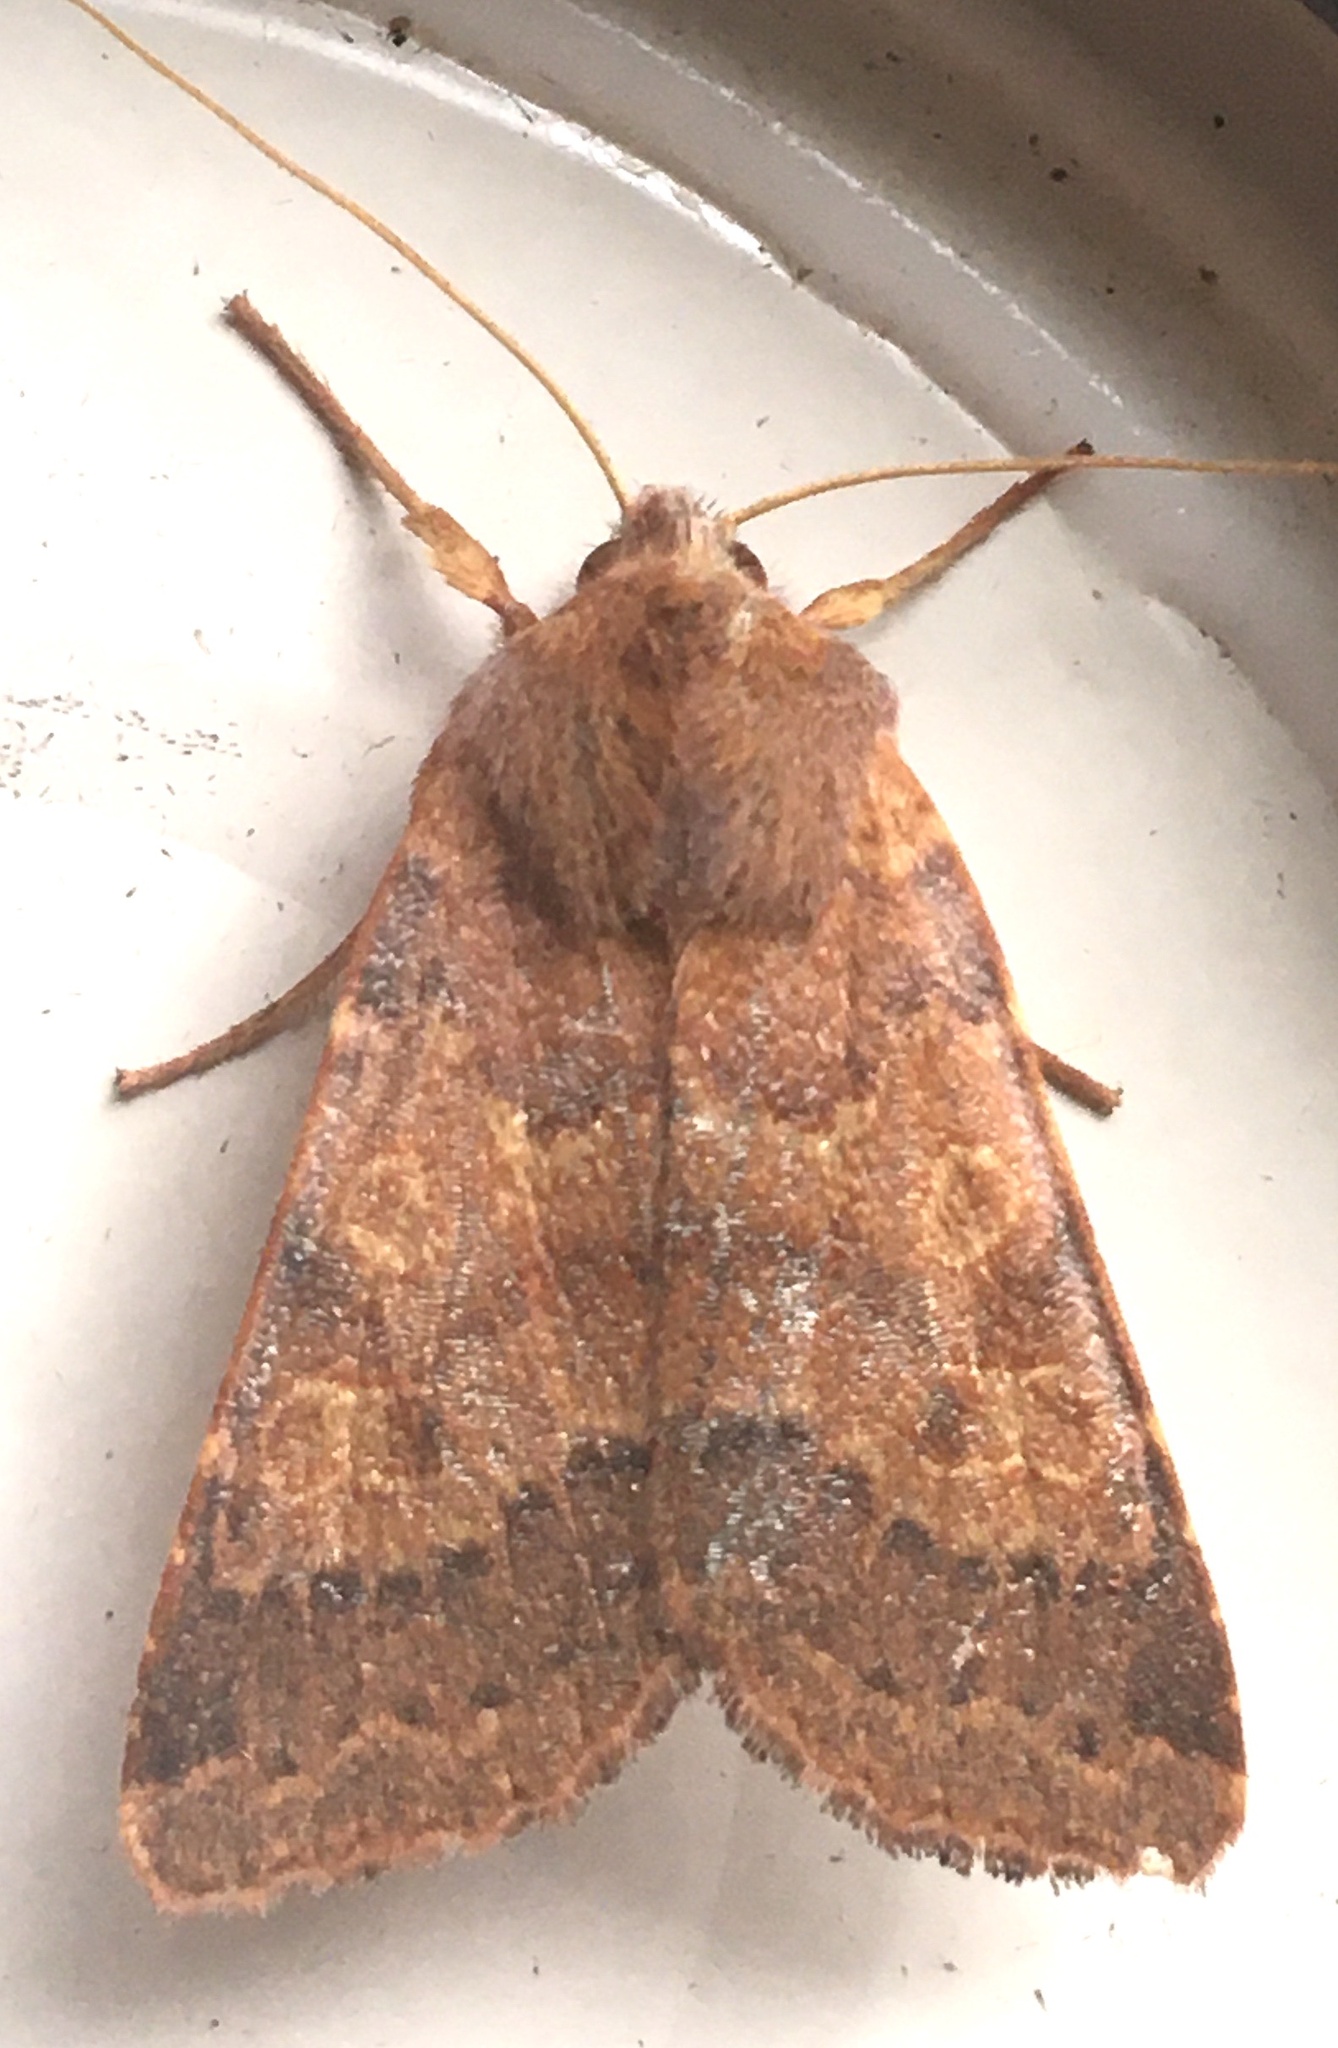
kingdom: Animalia
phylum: Arthropoda
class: Insecta
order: Lepidoptera
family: Noctuidae
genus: Agrochola
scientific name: Agrochola helvola
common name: Flounced chestnut
